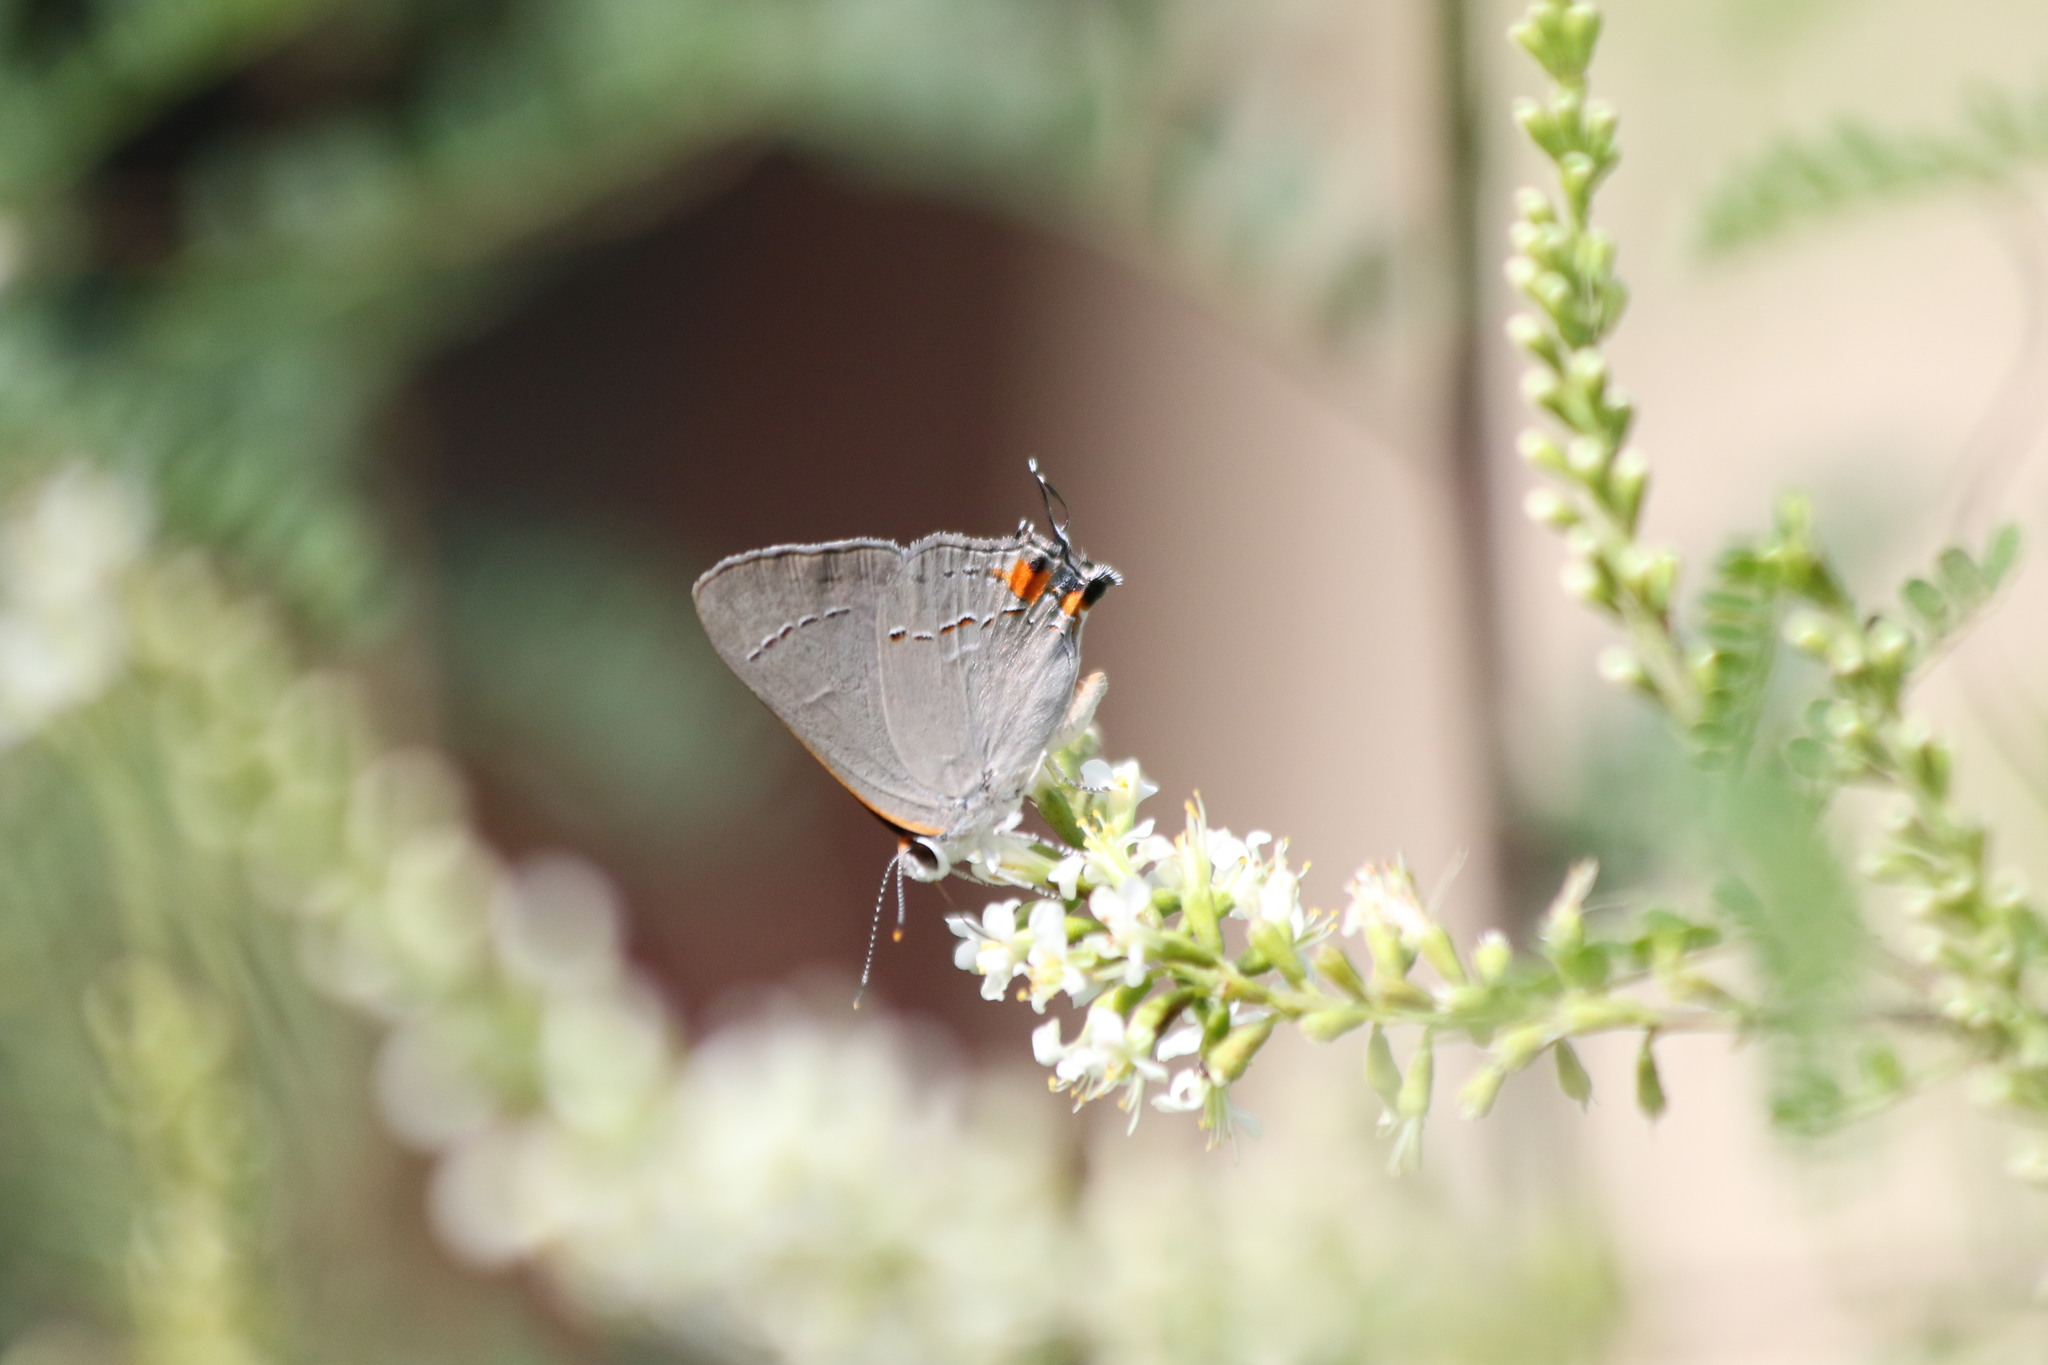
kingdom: Animalia
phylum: Arthropoda
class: Insecta
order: Lepidoptera
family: Lycaenidae
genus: Strymon
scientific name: Strymon melinus
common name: Gray hairstreak
